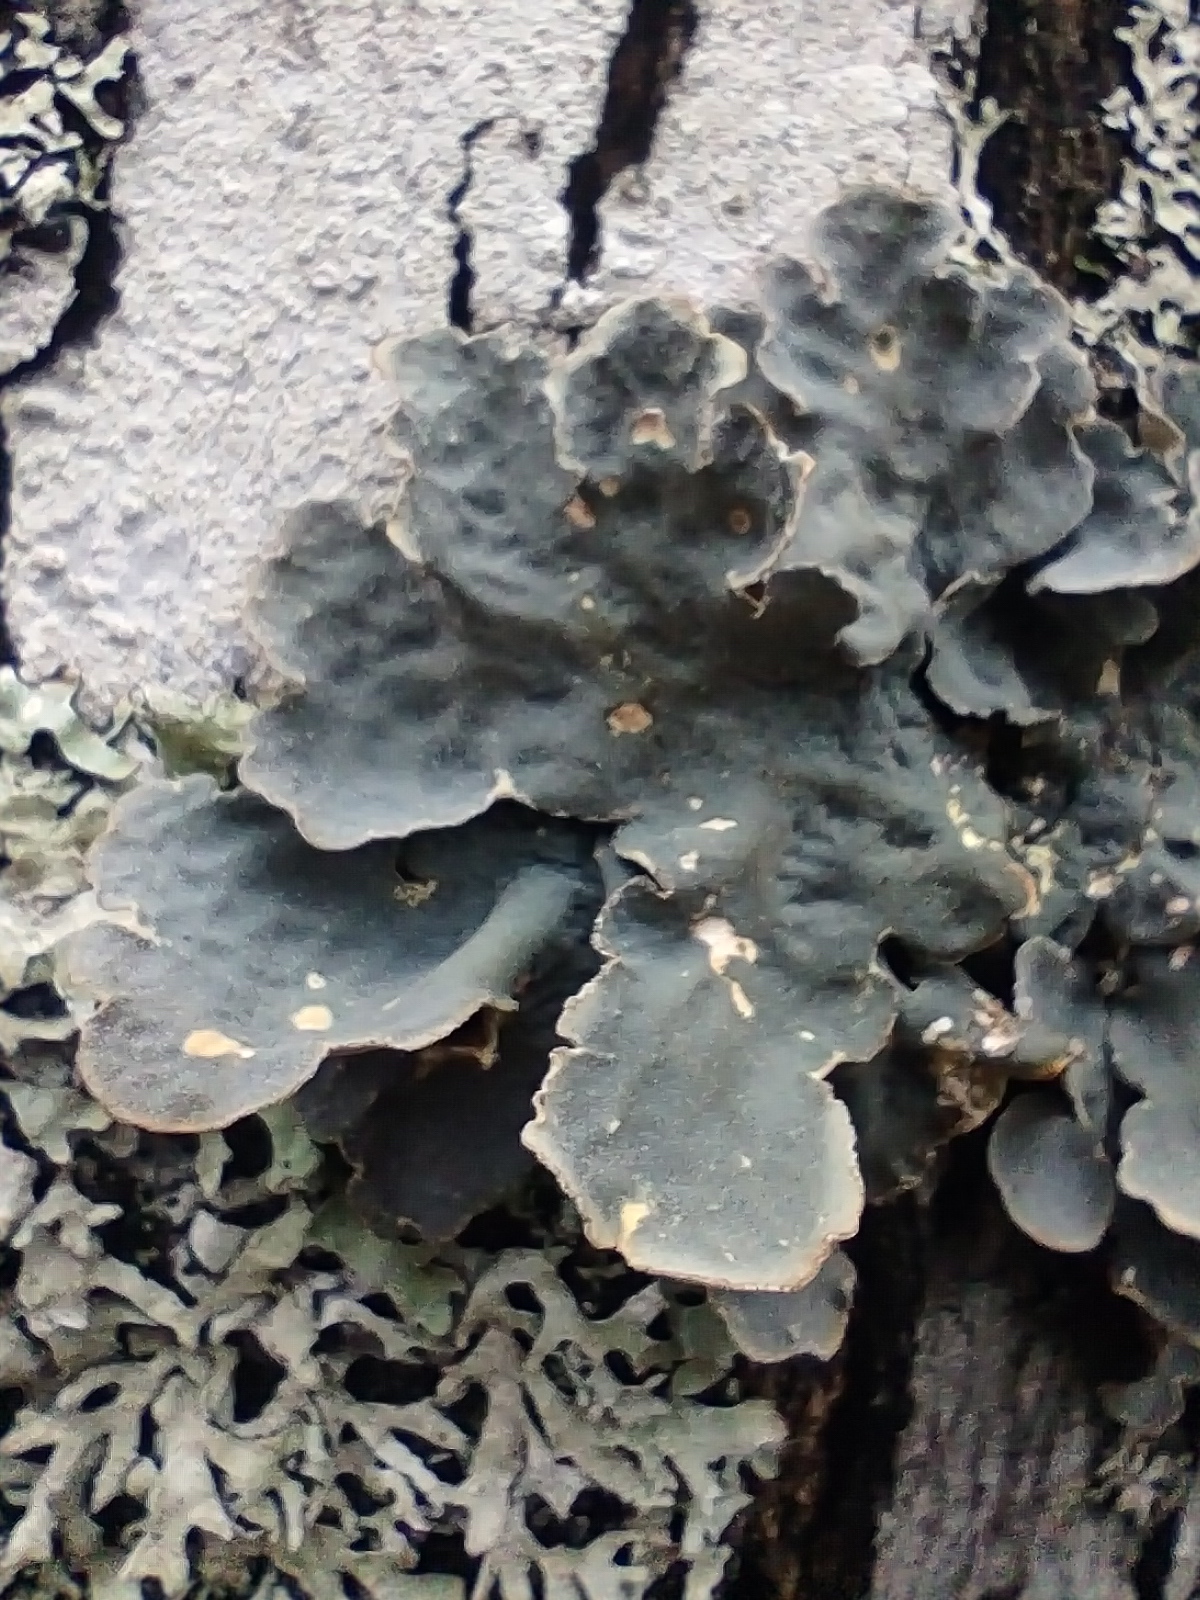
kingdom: Fungi
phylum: Ascomycota
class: Lecanoromycetes
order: Peltigerales
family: Lobariaceae
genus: Lobarina
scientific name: Lobarina scrobiculata
